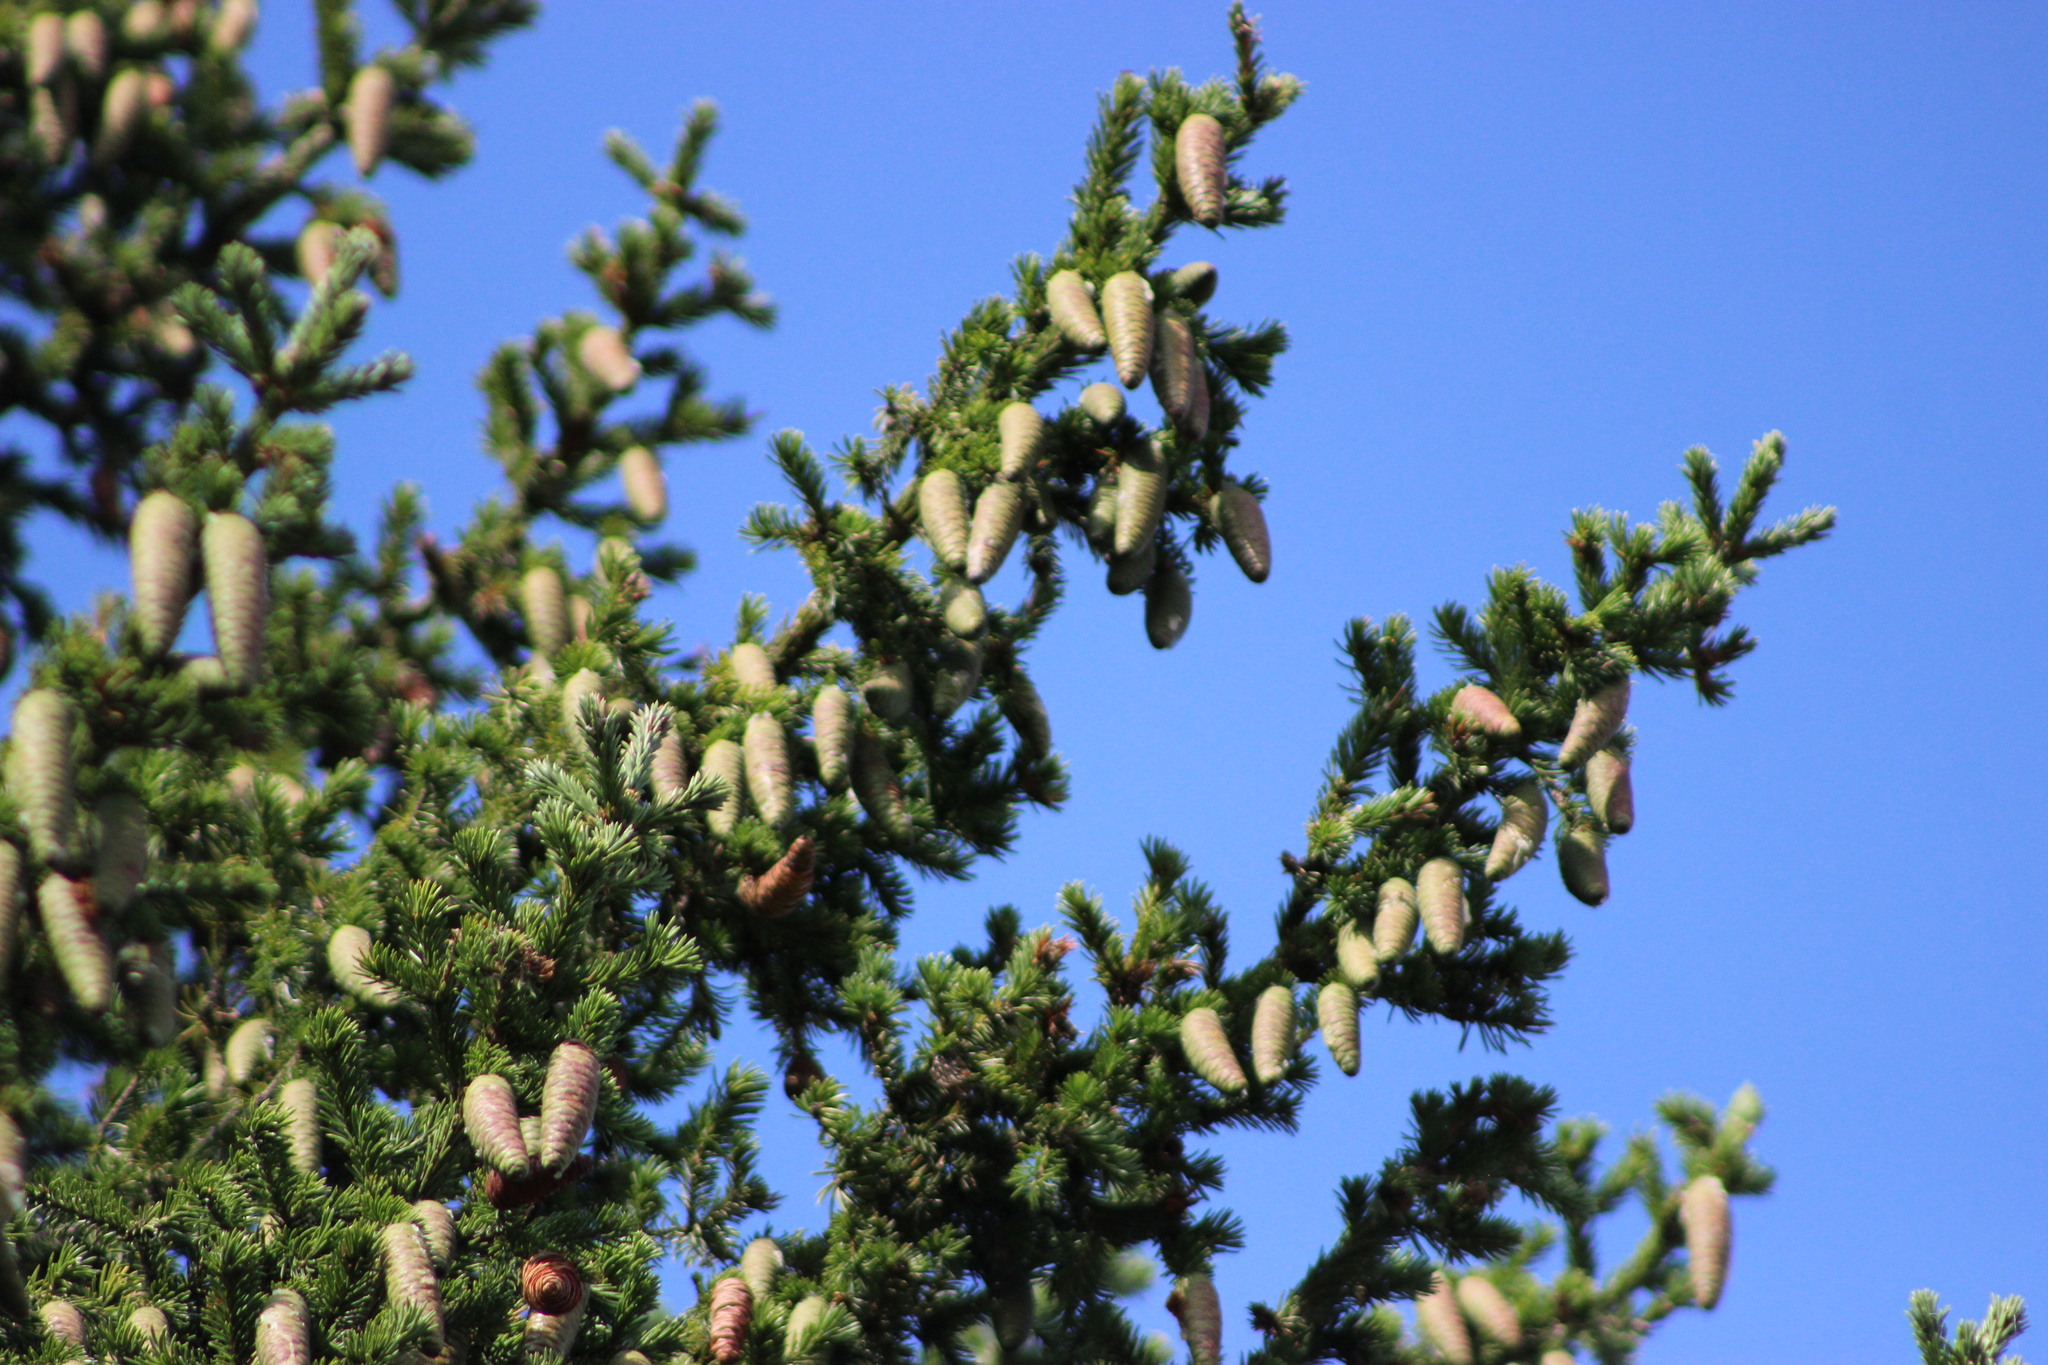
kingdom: Plantae
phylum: Tracheophyta
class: Pinopsida
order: Pinales
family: Pinaceae
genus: Picea
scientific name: Picea obovata
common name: Siberian spruce
